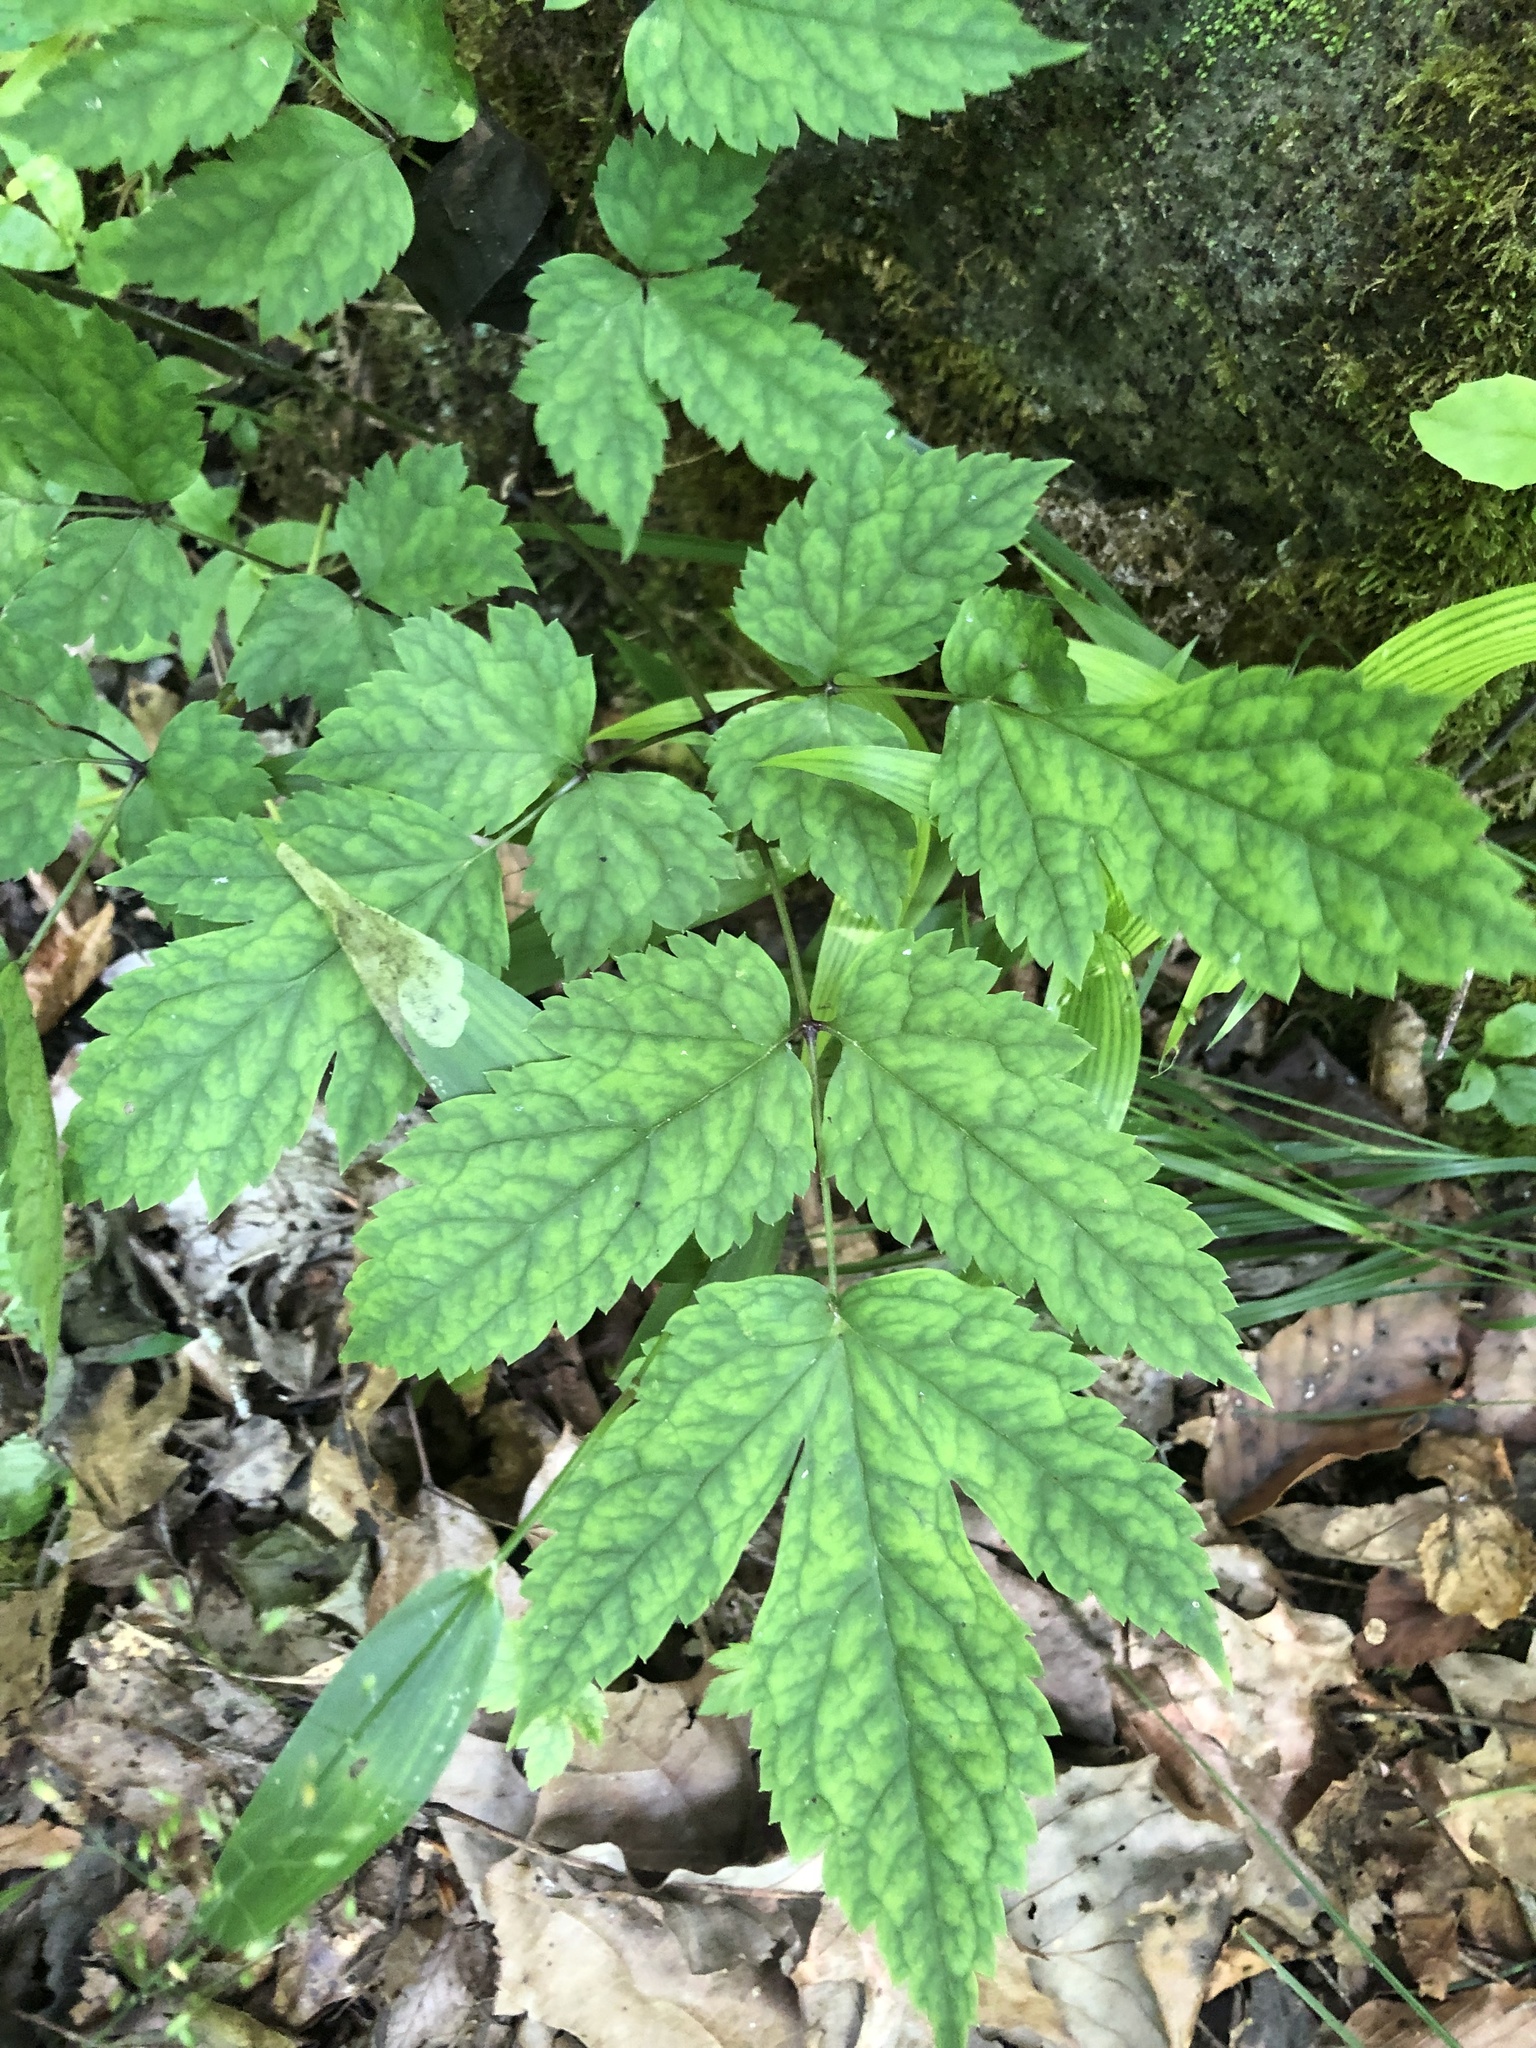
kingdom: Plantae
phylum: Tracheophyta
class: Magnoliopsida
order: Ranunculales
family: Ranunculaceae
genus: Actaea
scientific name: Actaea pachypoda
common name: Doll's-eyes
